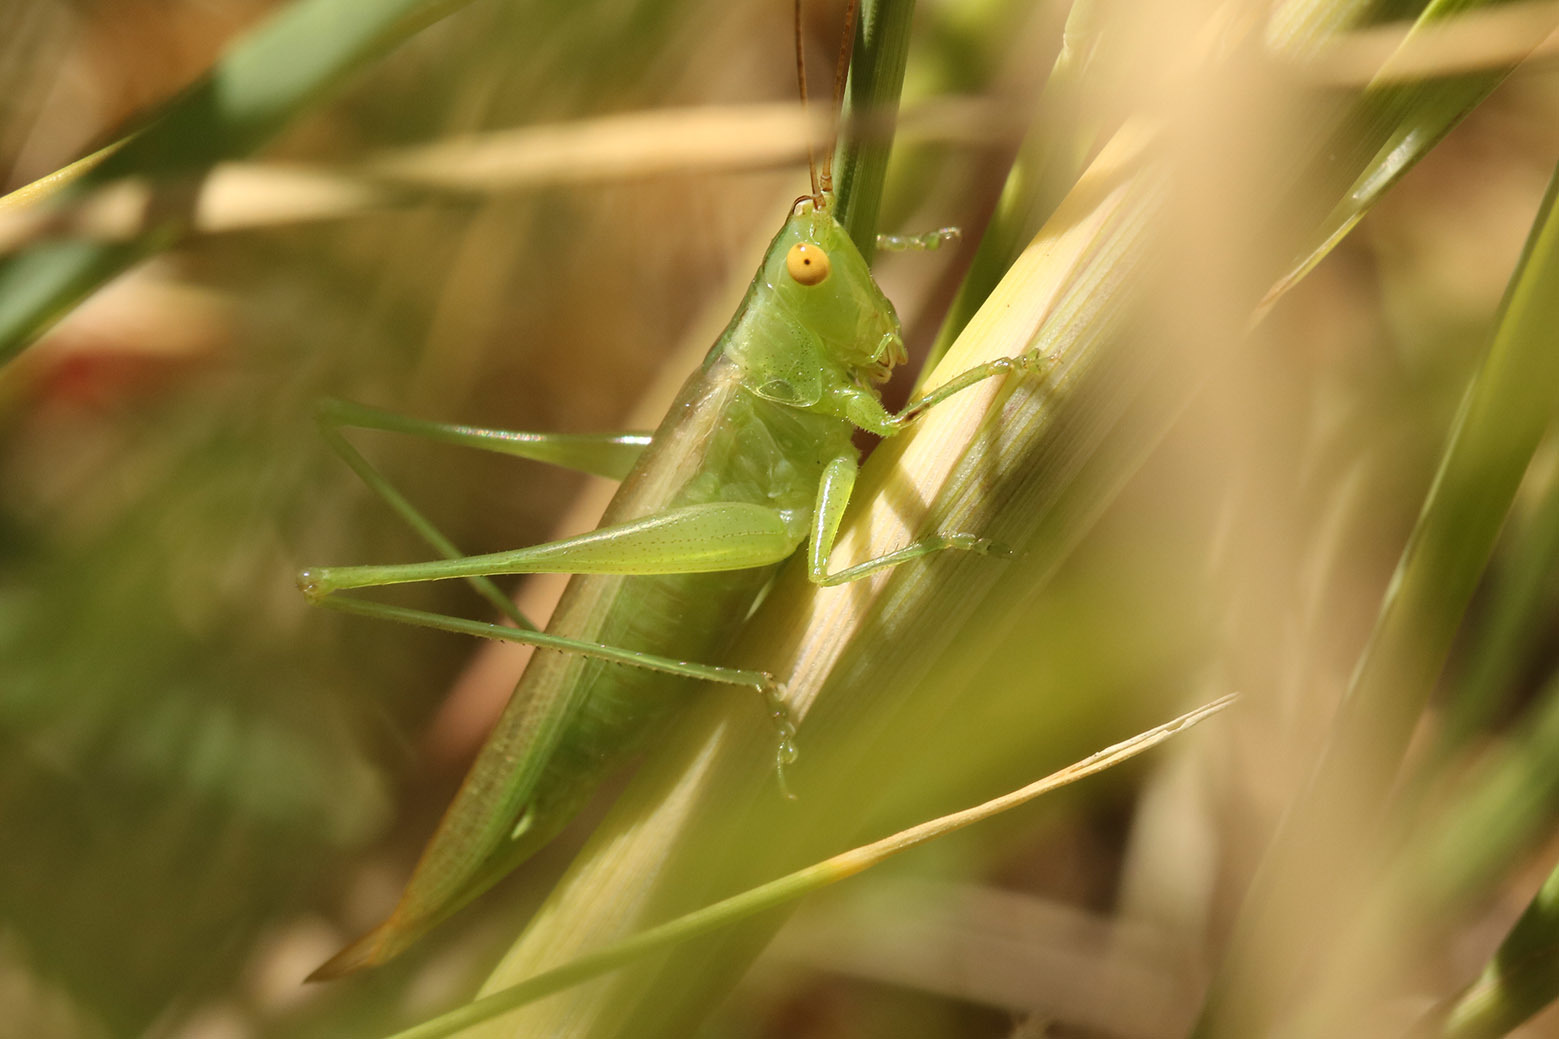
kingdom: Animalia
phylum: Arthropoda
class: Insecta
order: Orthoptera
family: Tettigoniidae
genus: Conocephalus
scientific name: Conocephalus longipes
